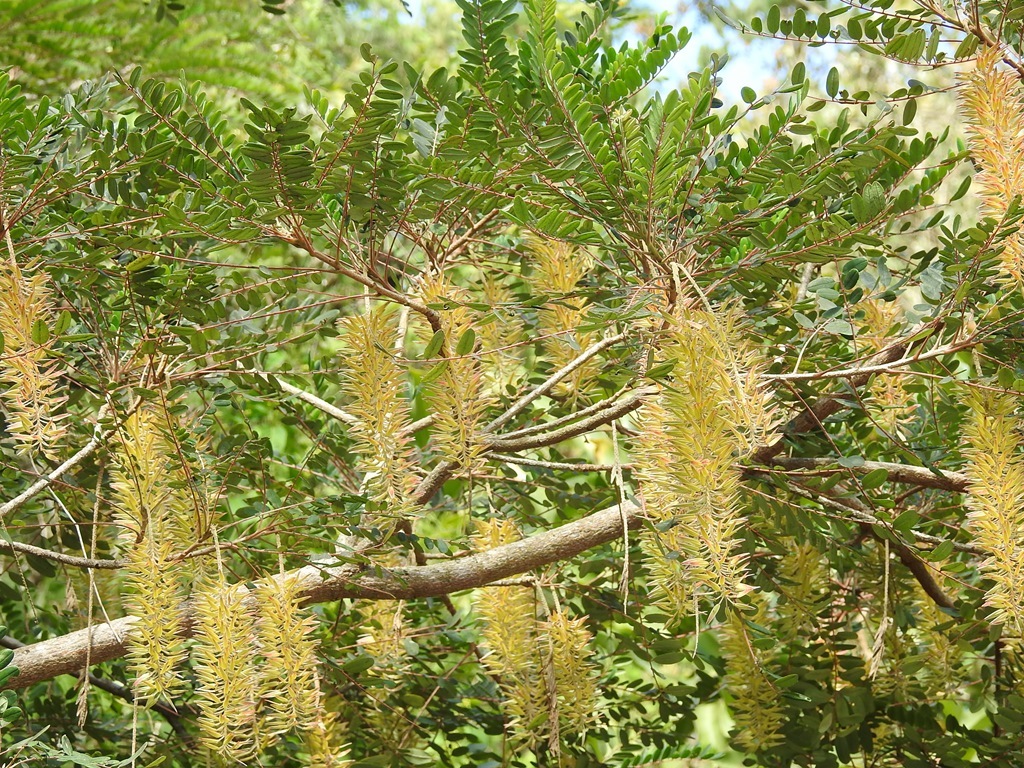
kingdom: Plantae
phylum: Tracheophyta
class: Magnoliopsida
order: Picramniales
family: Picramniaceae
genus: Alvaradoa
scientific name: Alvaradoa amorphoides
